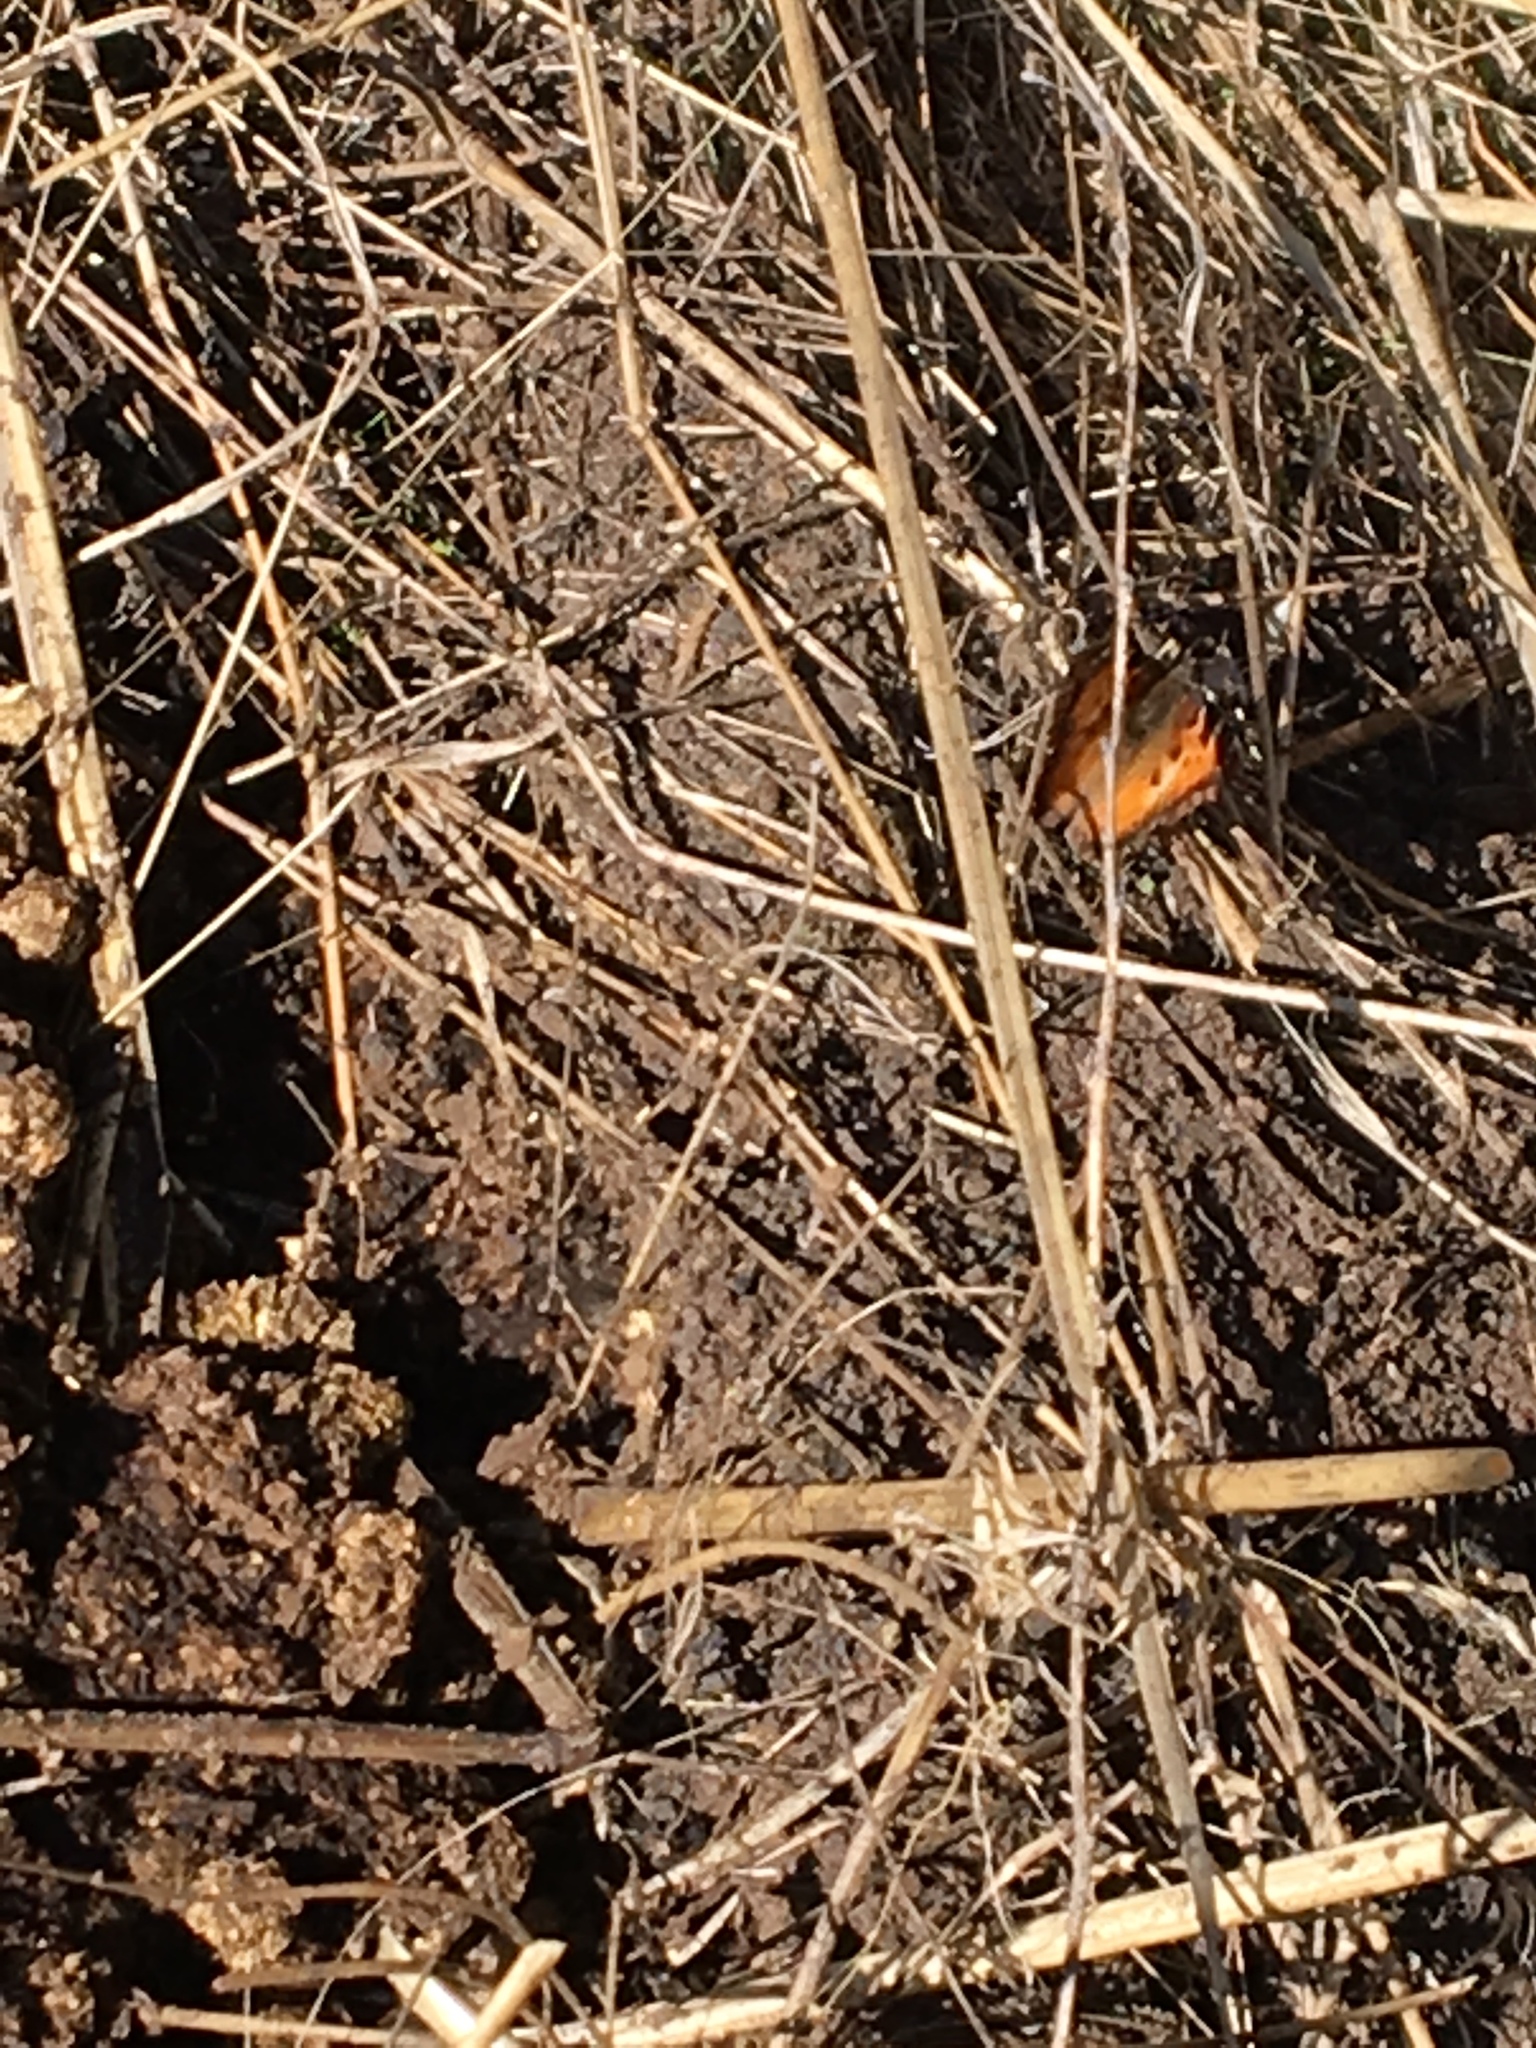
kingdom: Animalia
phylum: Arthropoda
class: Insecta
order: Lepidoptera
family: Nymphalidae
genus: Nymphalis
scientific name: Nymphalis californica
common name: California tortoiseshell
